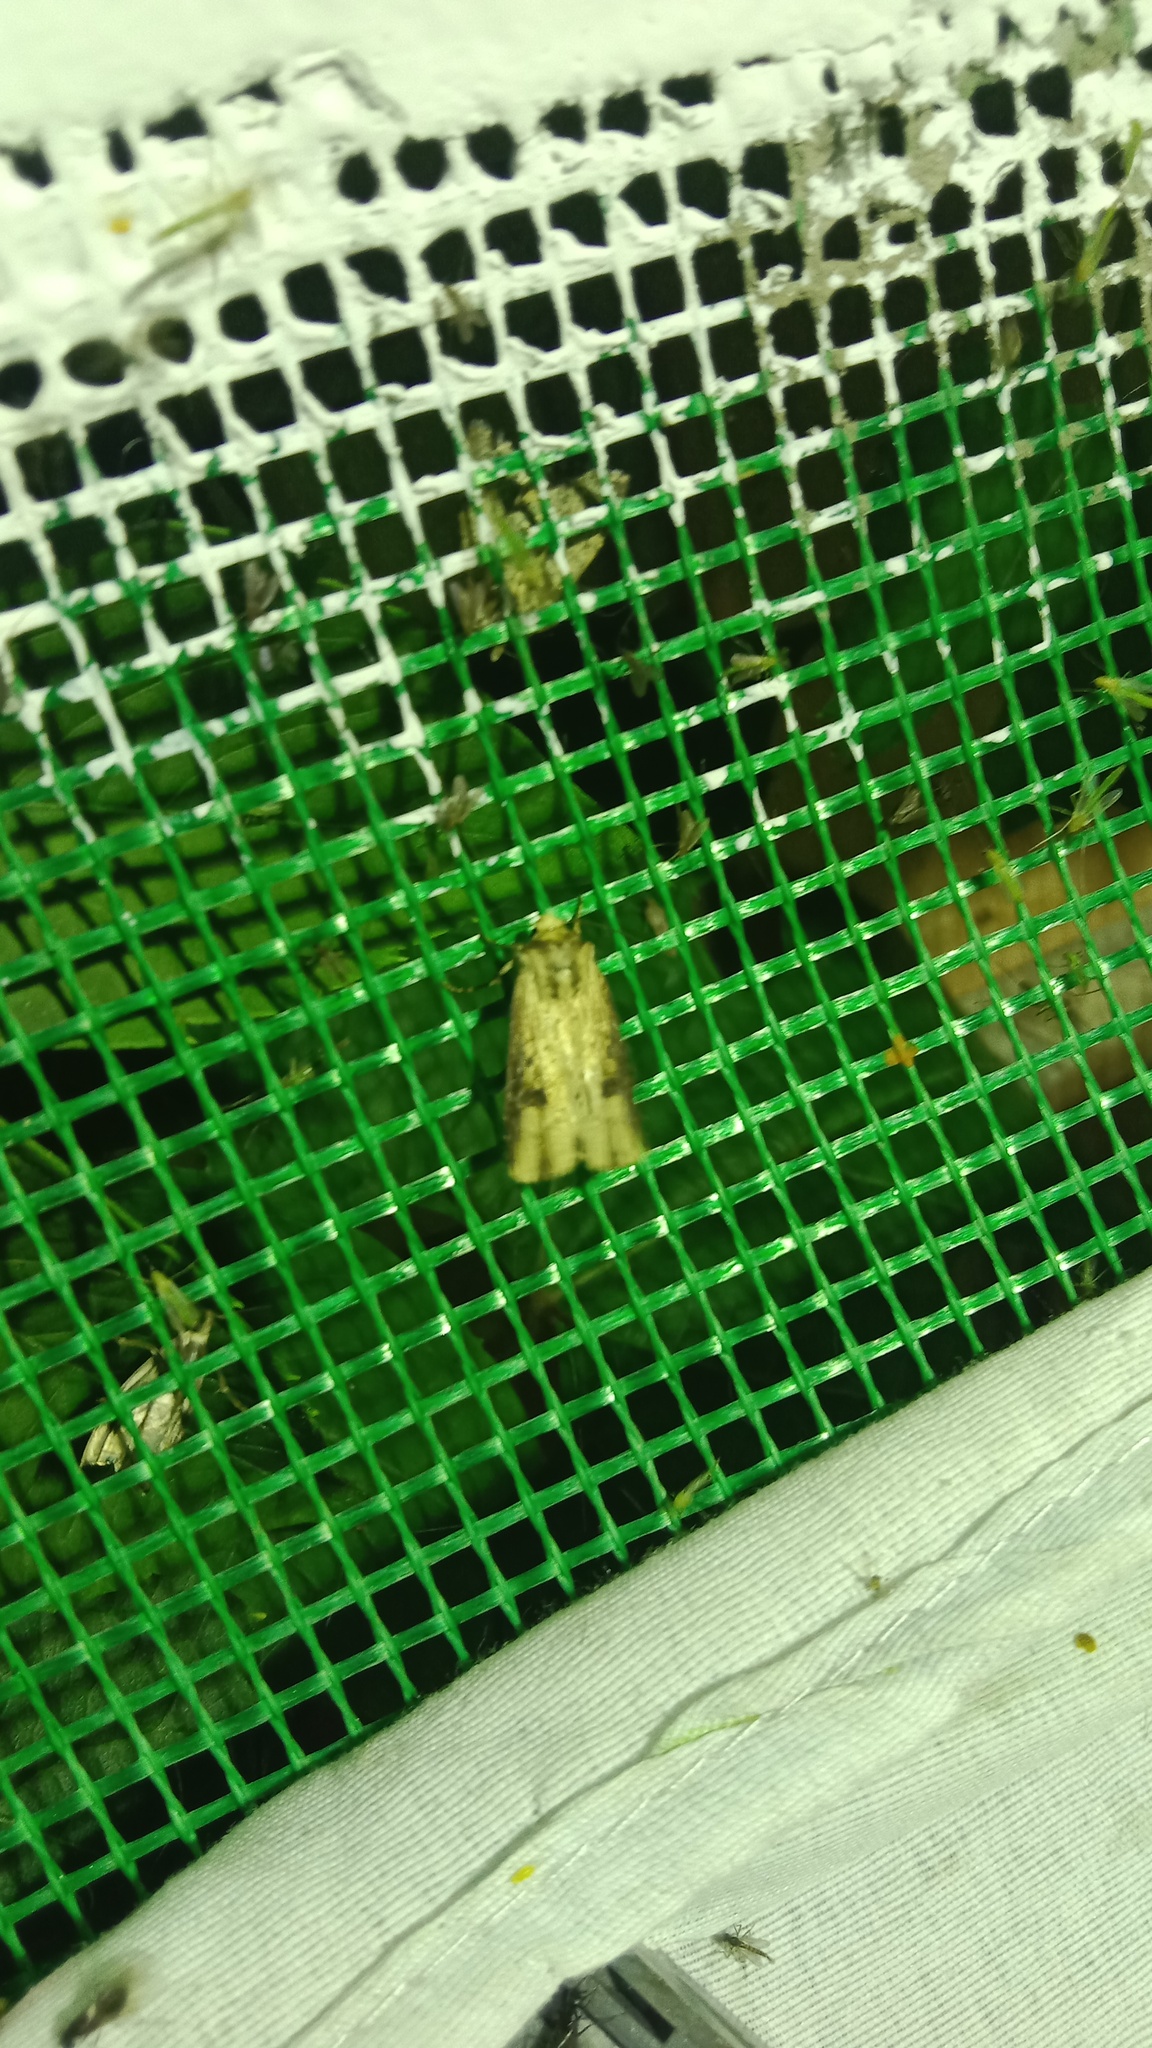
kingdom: Animalia
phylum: Arthropoda
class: Insecta
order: Lepidoptera
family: Noctuidae
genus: Axylia
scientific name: Axylia putris
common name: Flame
